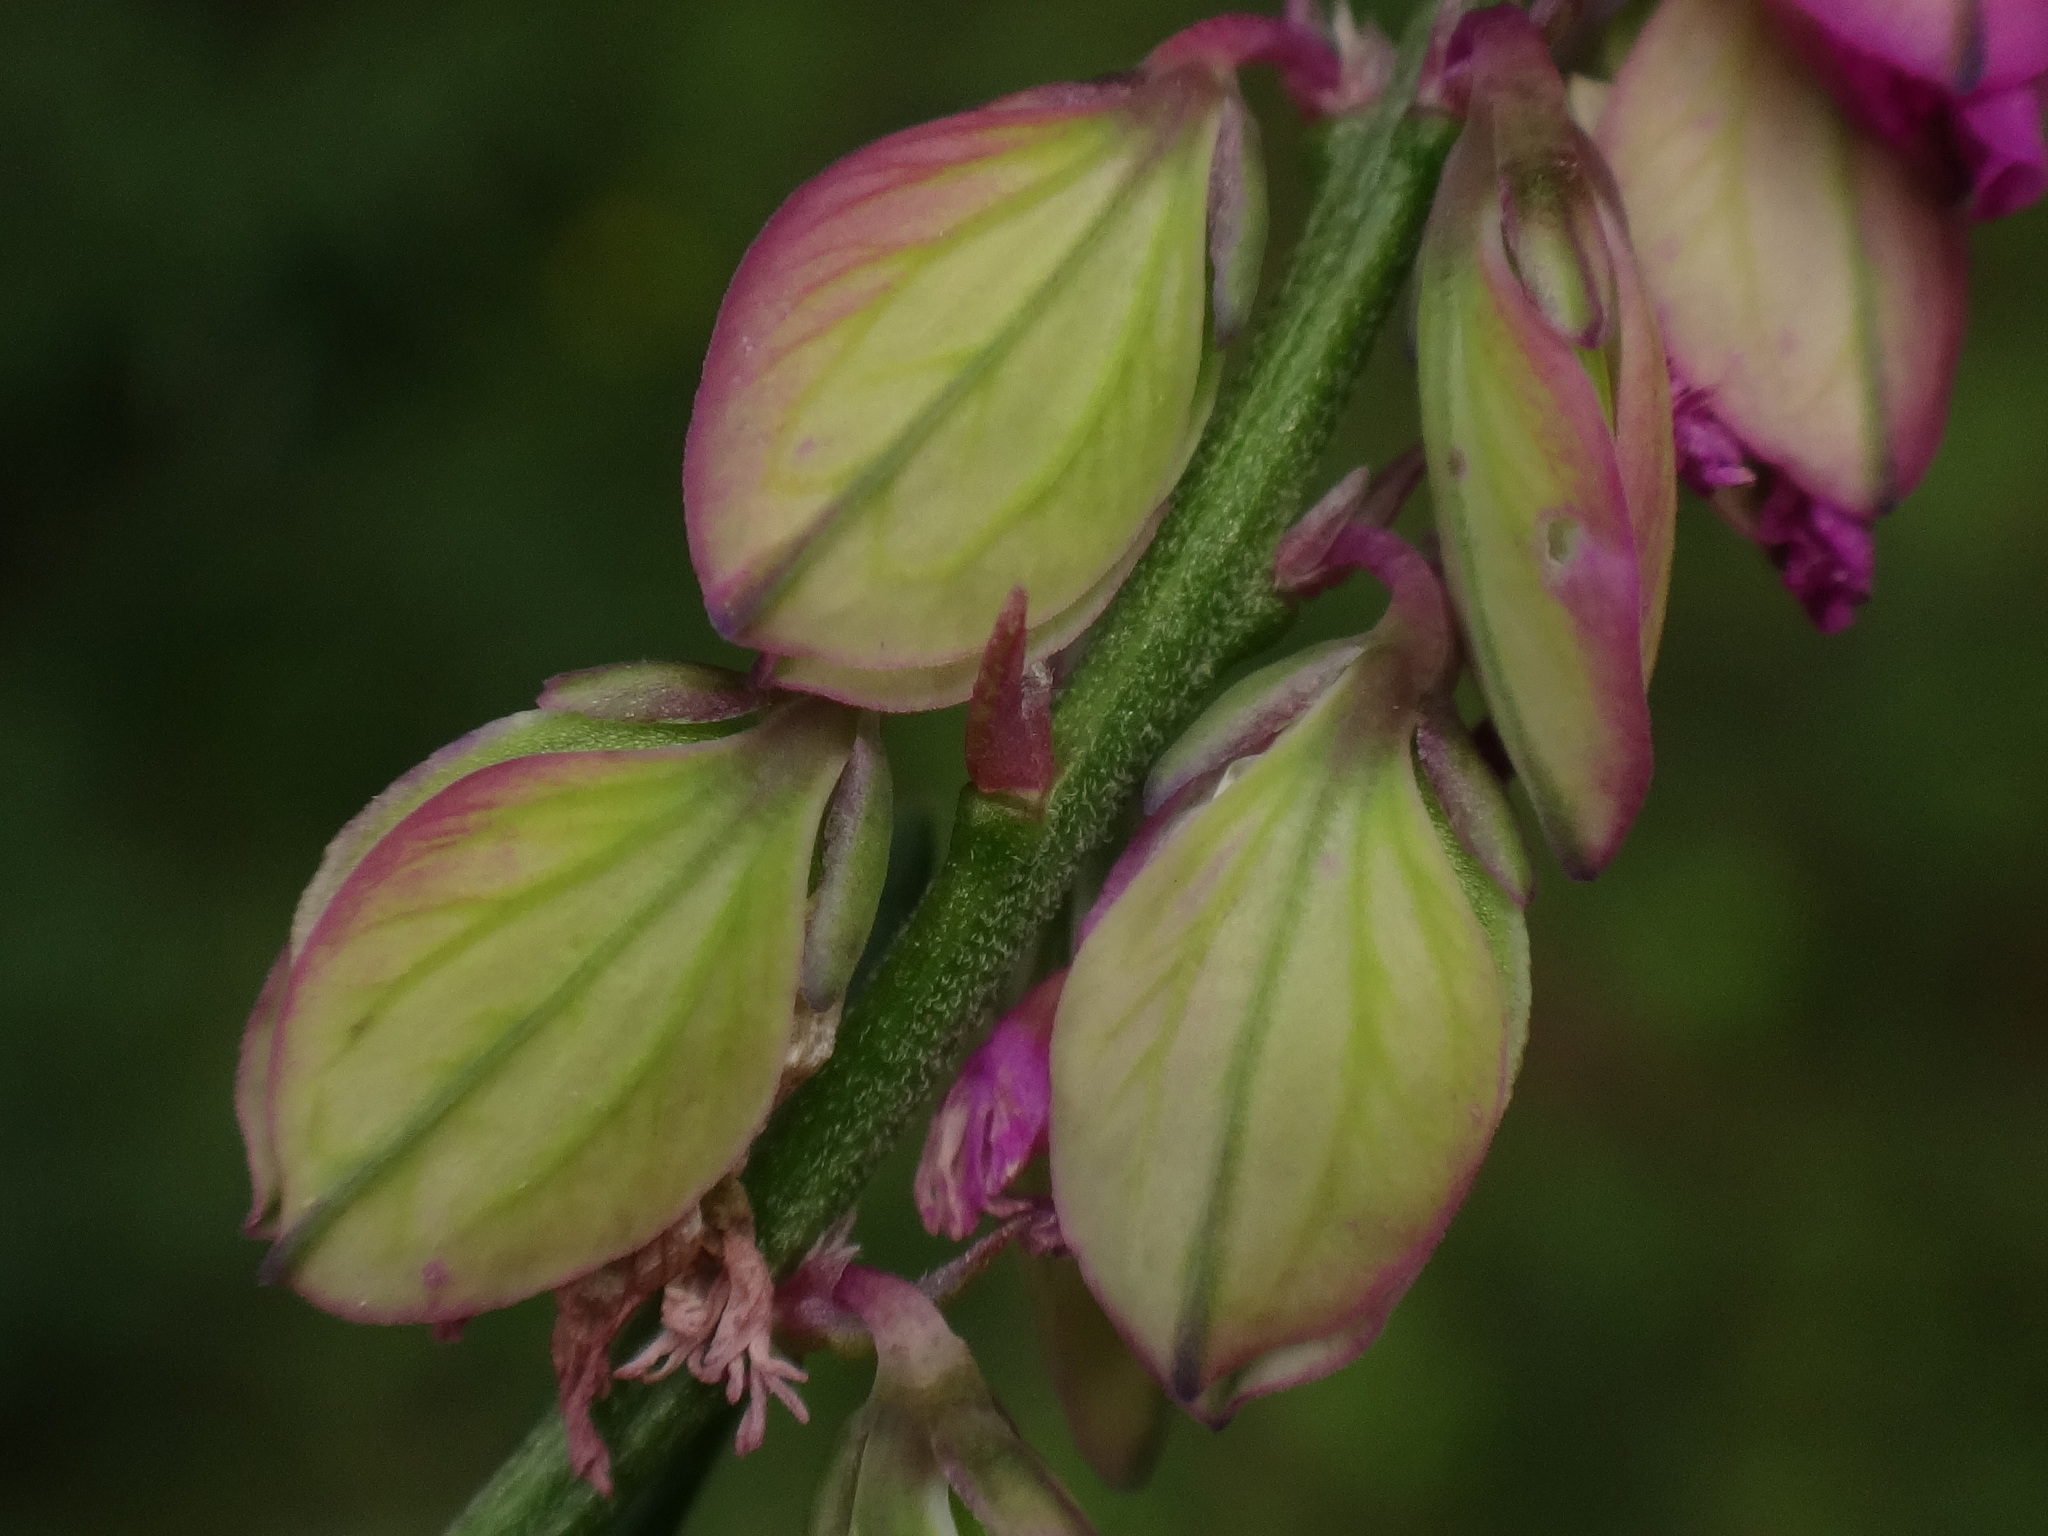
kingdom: Plantae
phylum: Tracheophyta
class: Magnoliopsida
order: Fabales
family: Polygalaceae
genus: Polygala
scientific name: Polygala comosa
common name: Tufted milkwort
